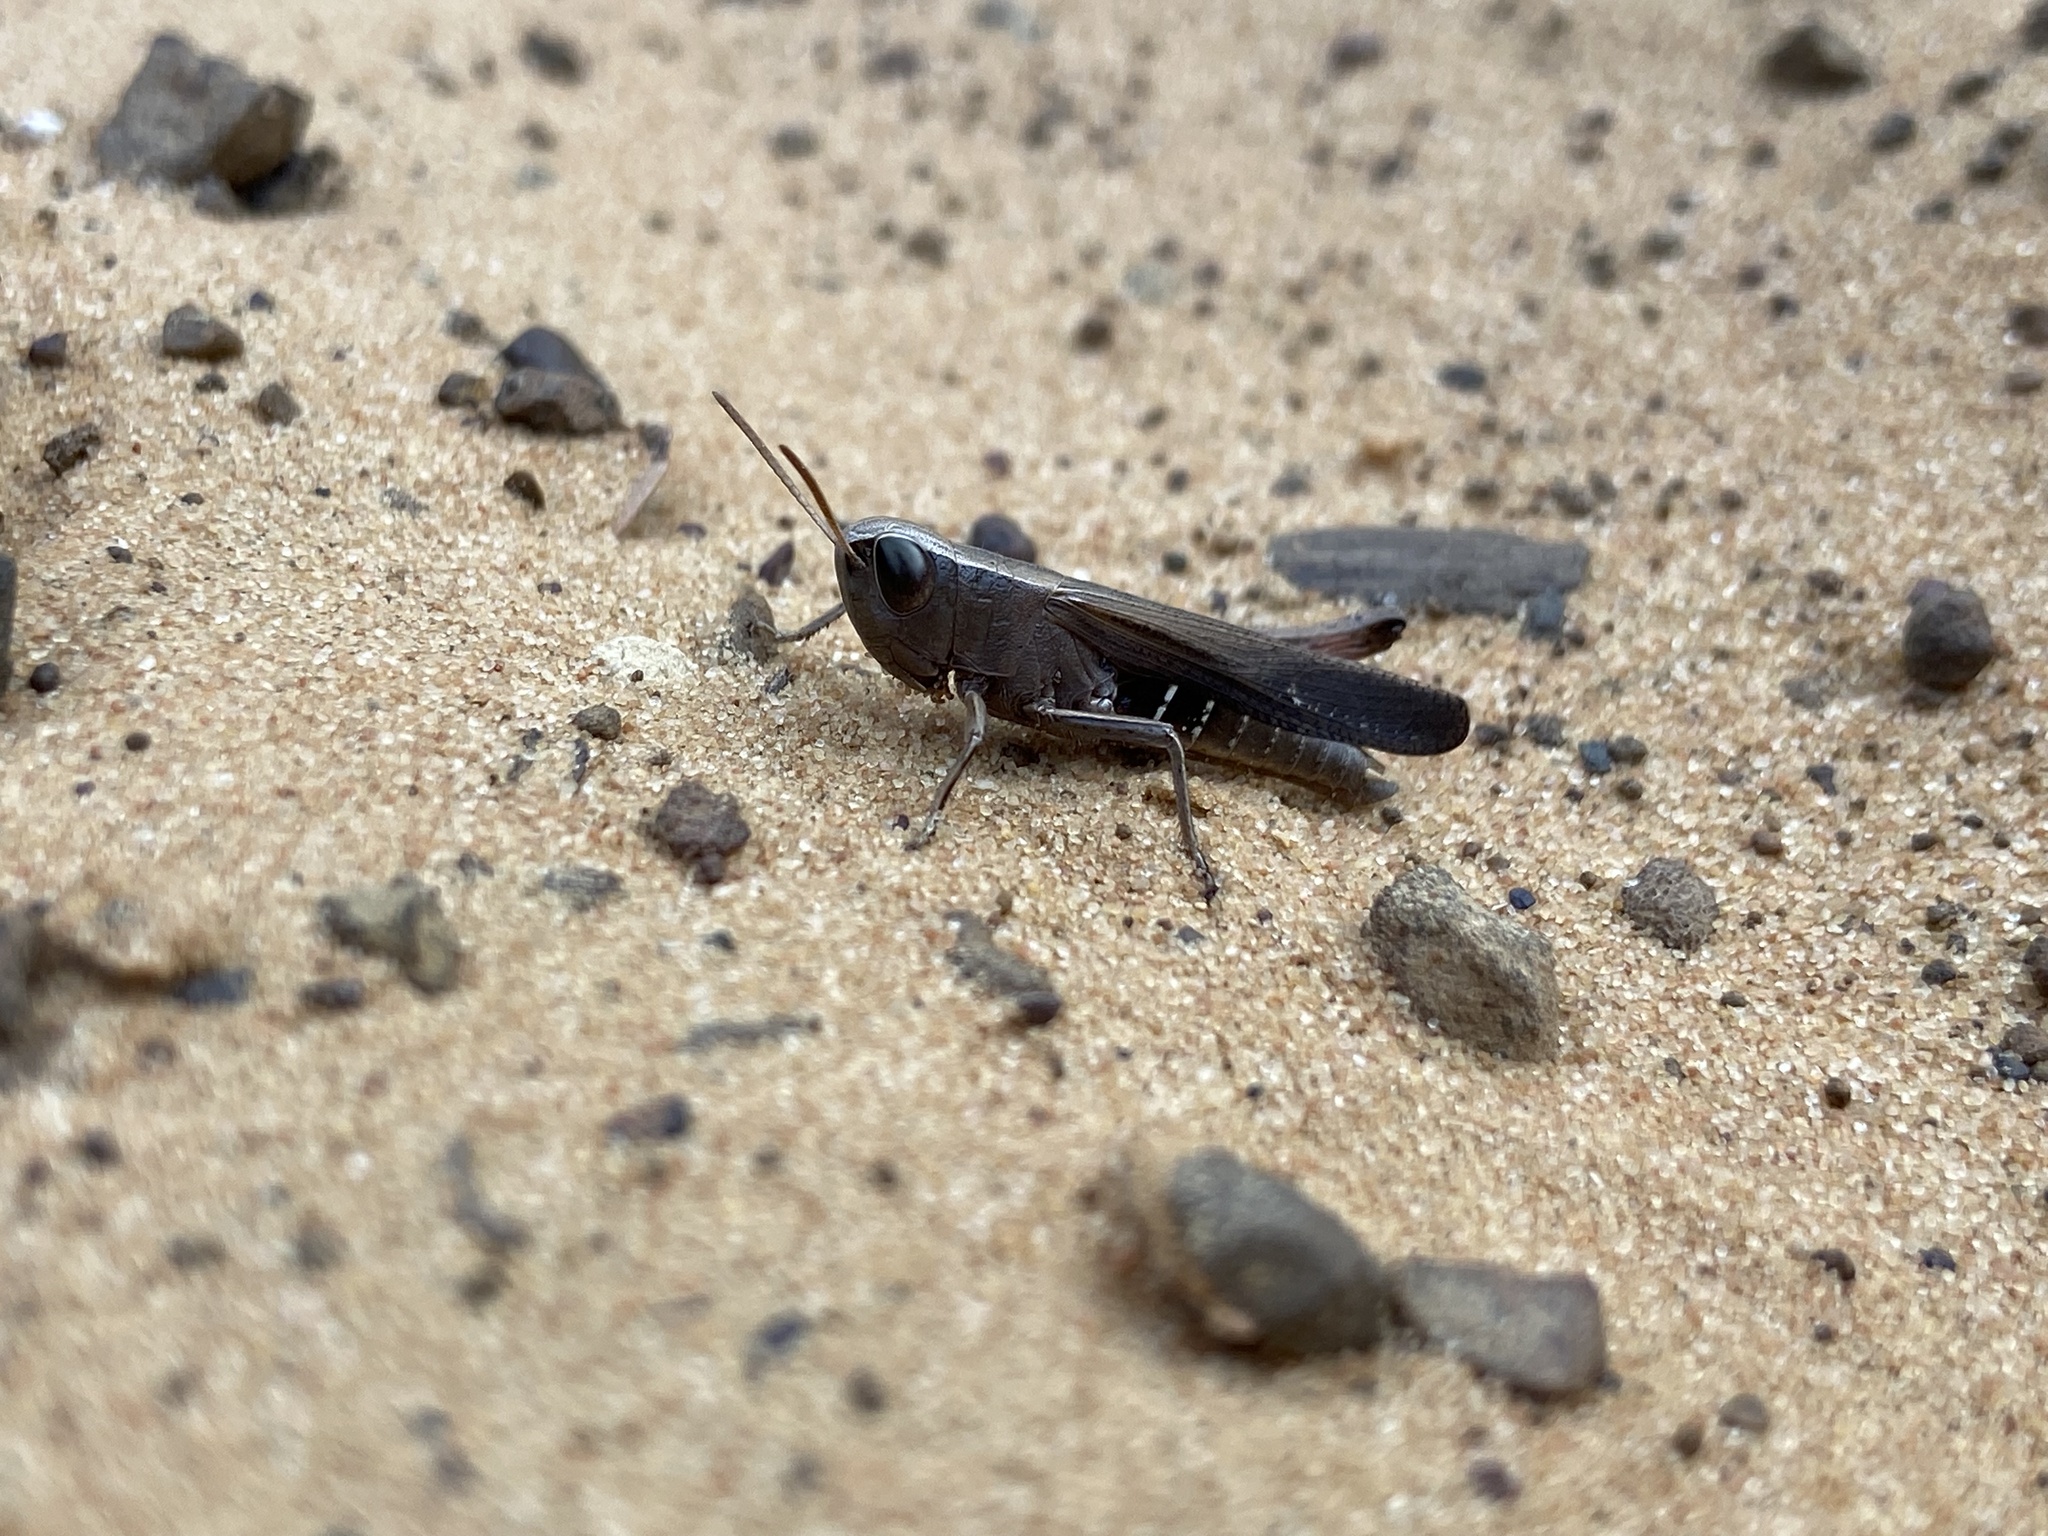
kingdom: Animalia
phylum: Arthropoda
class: Insecta
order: Orthoptera
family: Acrididae
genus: Amblytropidia
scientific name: Amblytropidia mysteca
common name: Brown winter grasshopper
